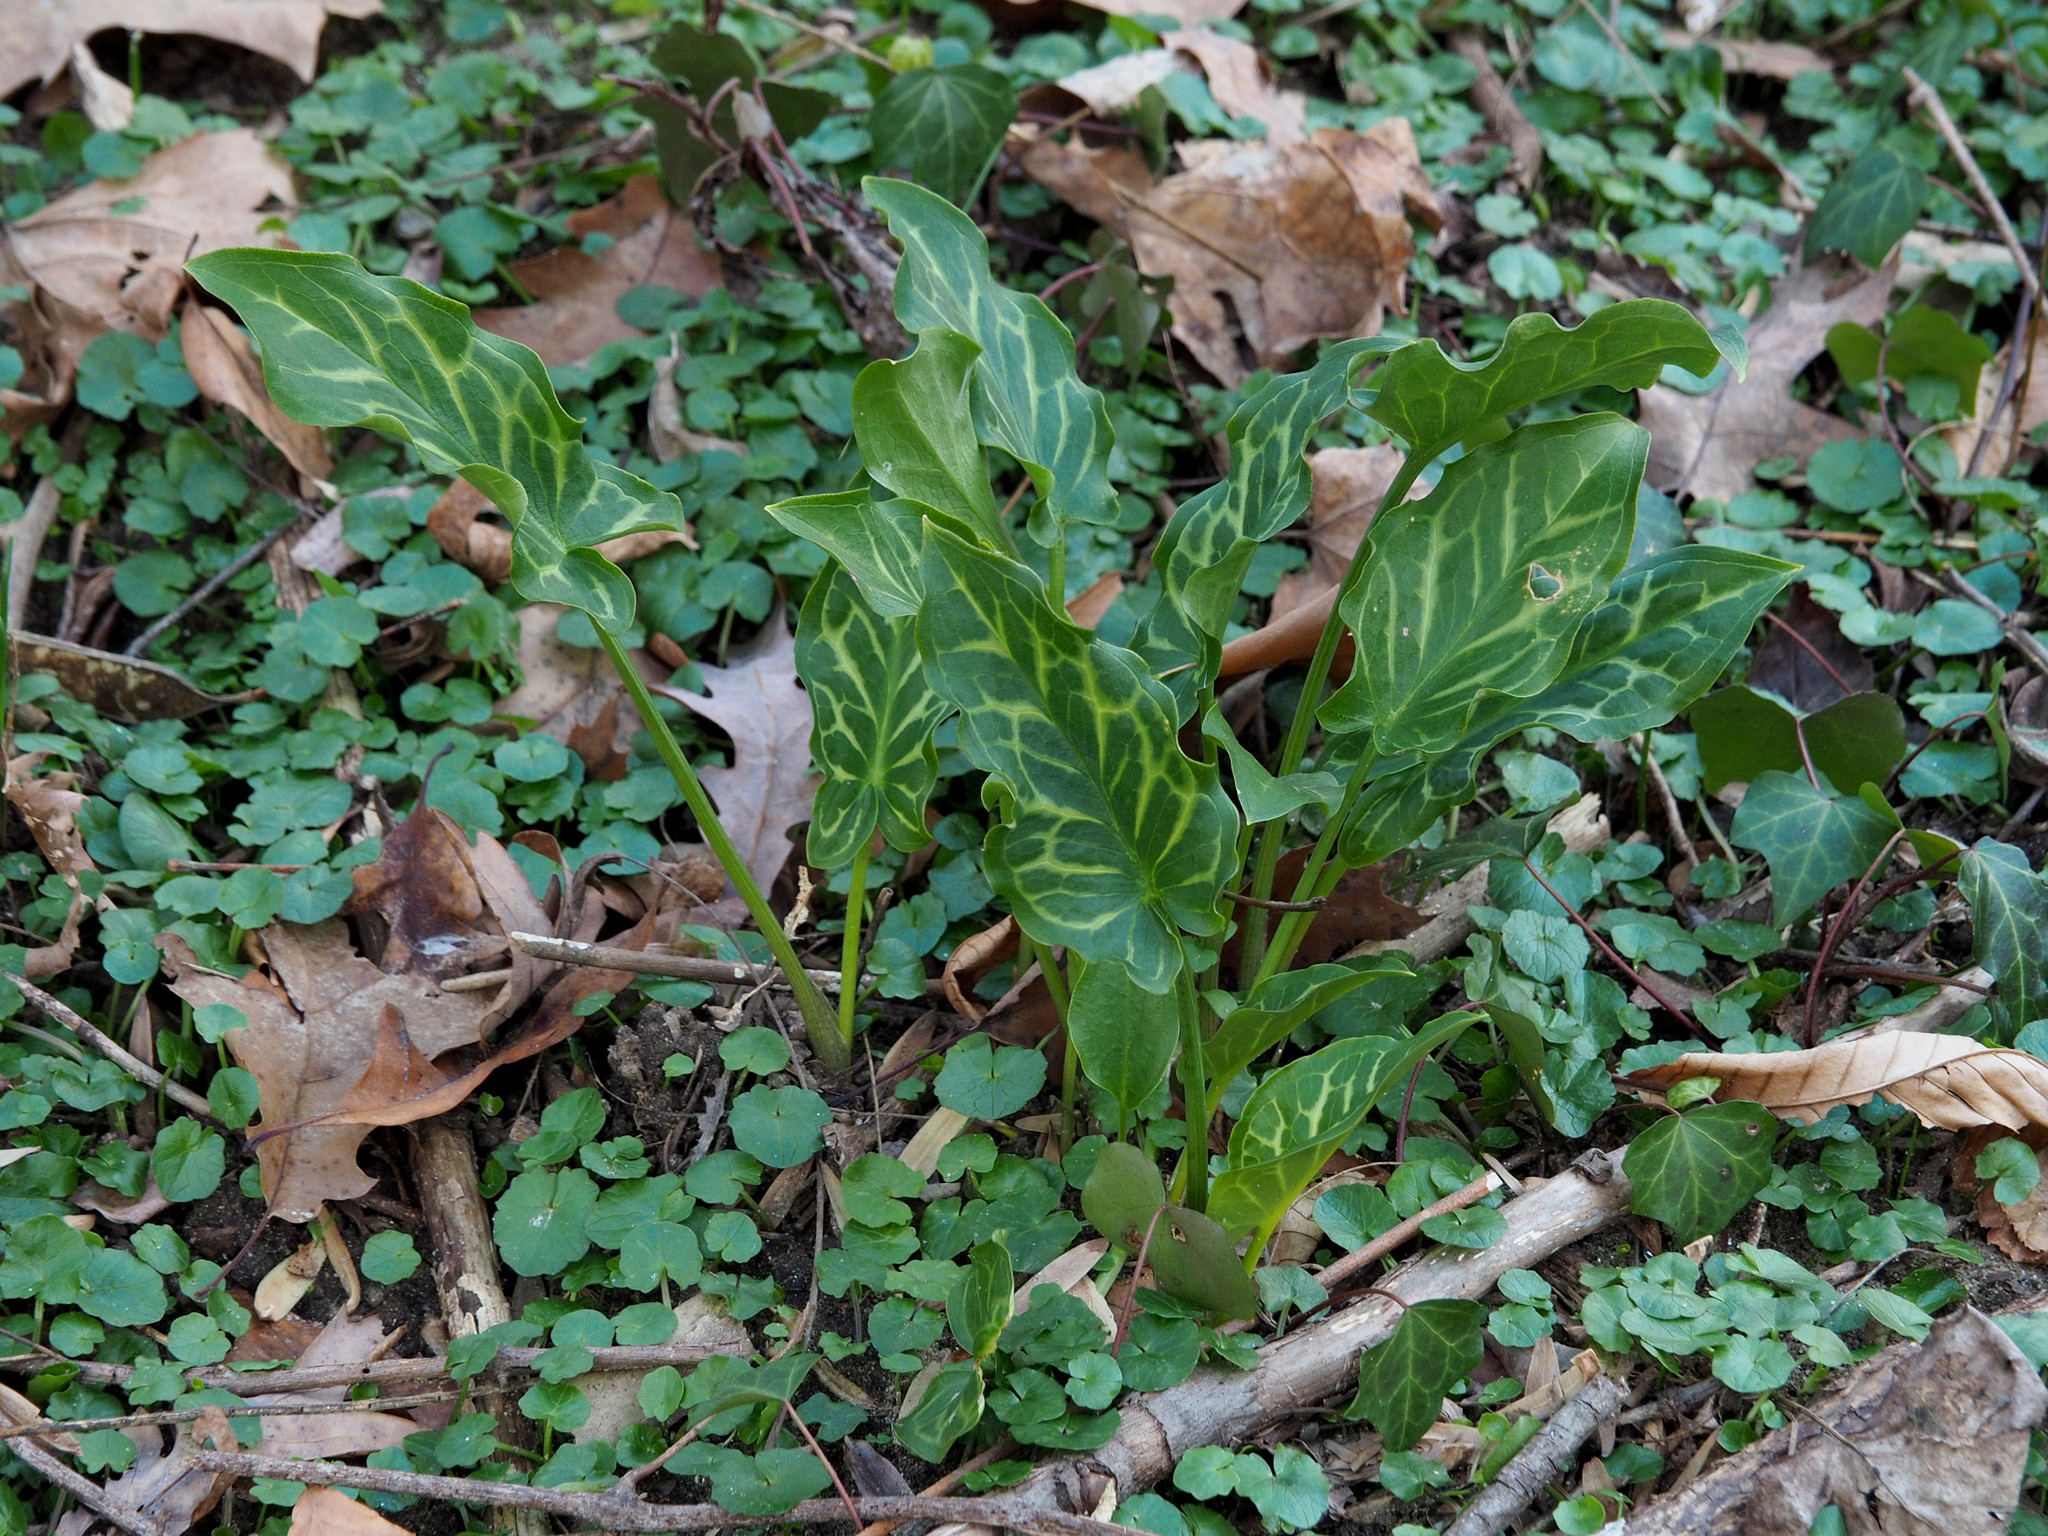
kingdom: Plantae
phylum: Tracheophyta
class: Liliopsida
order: Alismatales
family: Araceae
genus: Arum
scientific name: Arum italicum
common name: Italian lords-and-ladies
